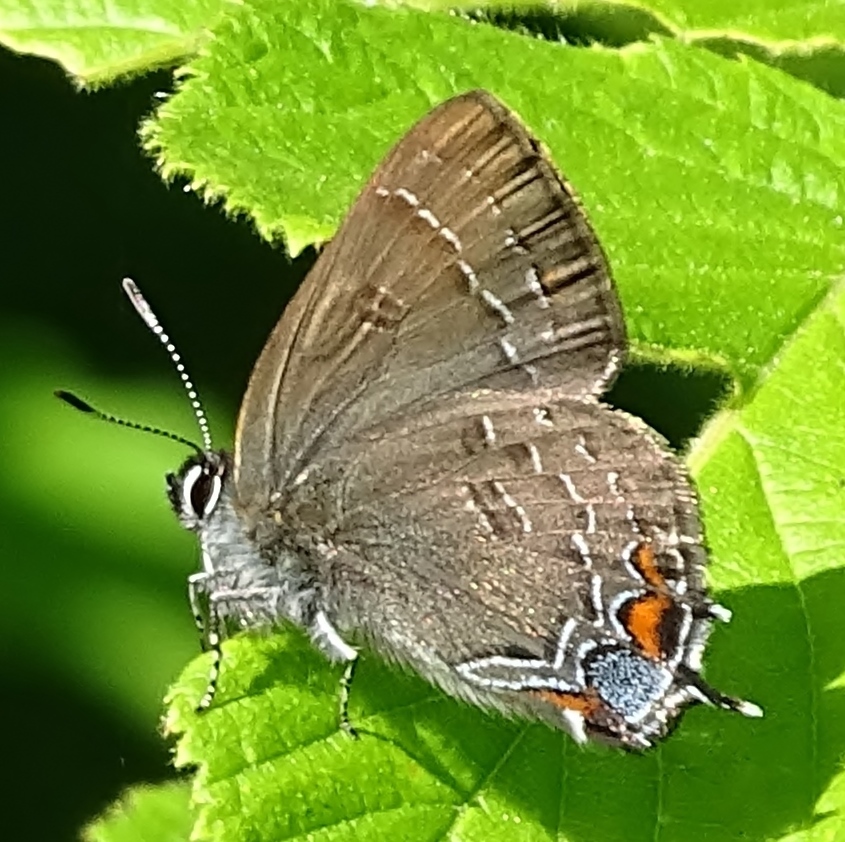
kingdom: Animalia
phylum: Arthropoda
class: Insecta
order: Lepidoptera
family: Lycaenidae
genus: Satyrium
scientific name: Satyrium calanus
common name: Banded hairstreak
